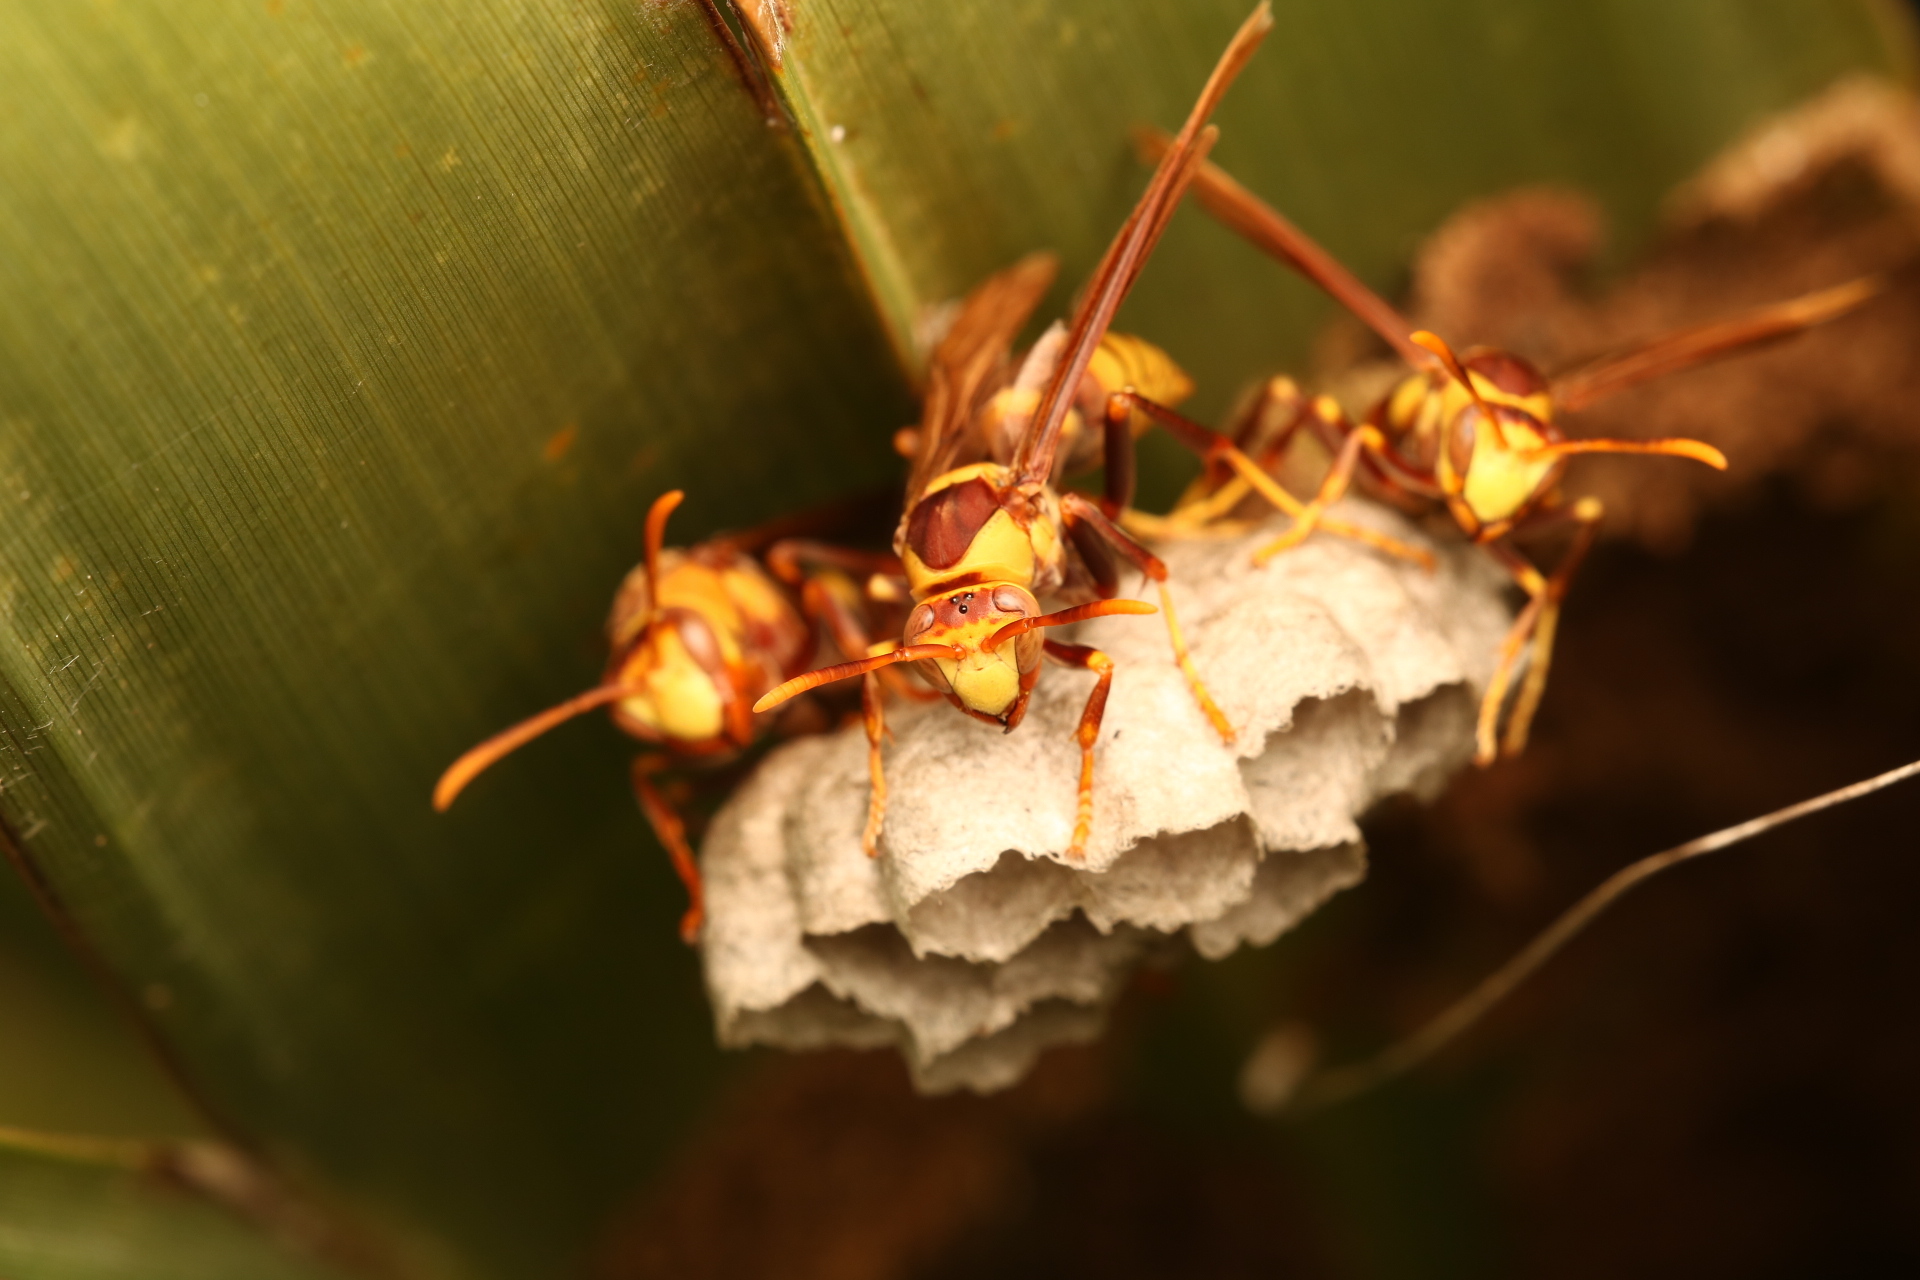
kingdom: Animalia
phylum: Arthropoda
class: Insecta
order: Hymenoptera
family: Eumenidae
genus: Polistes
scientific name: Polistes major
